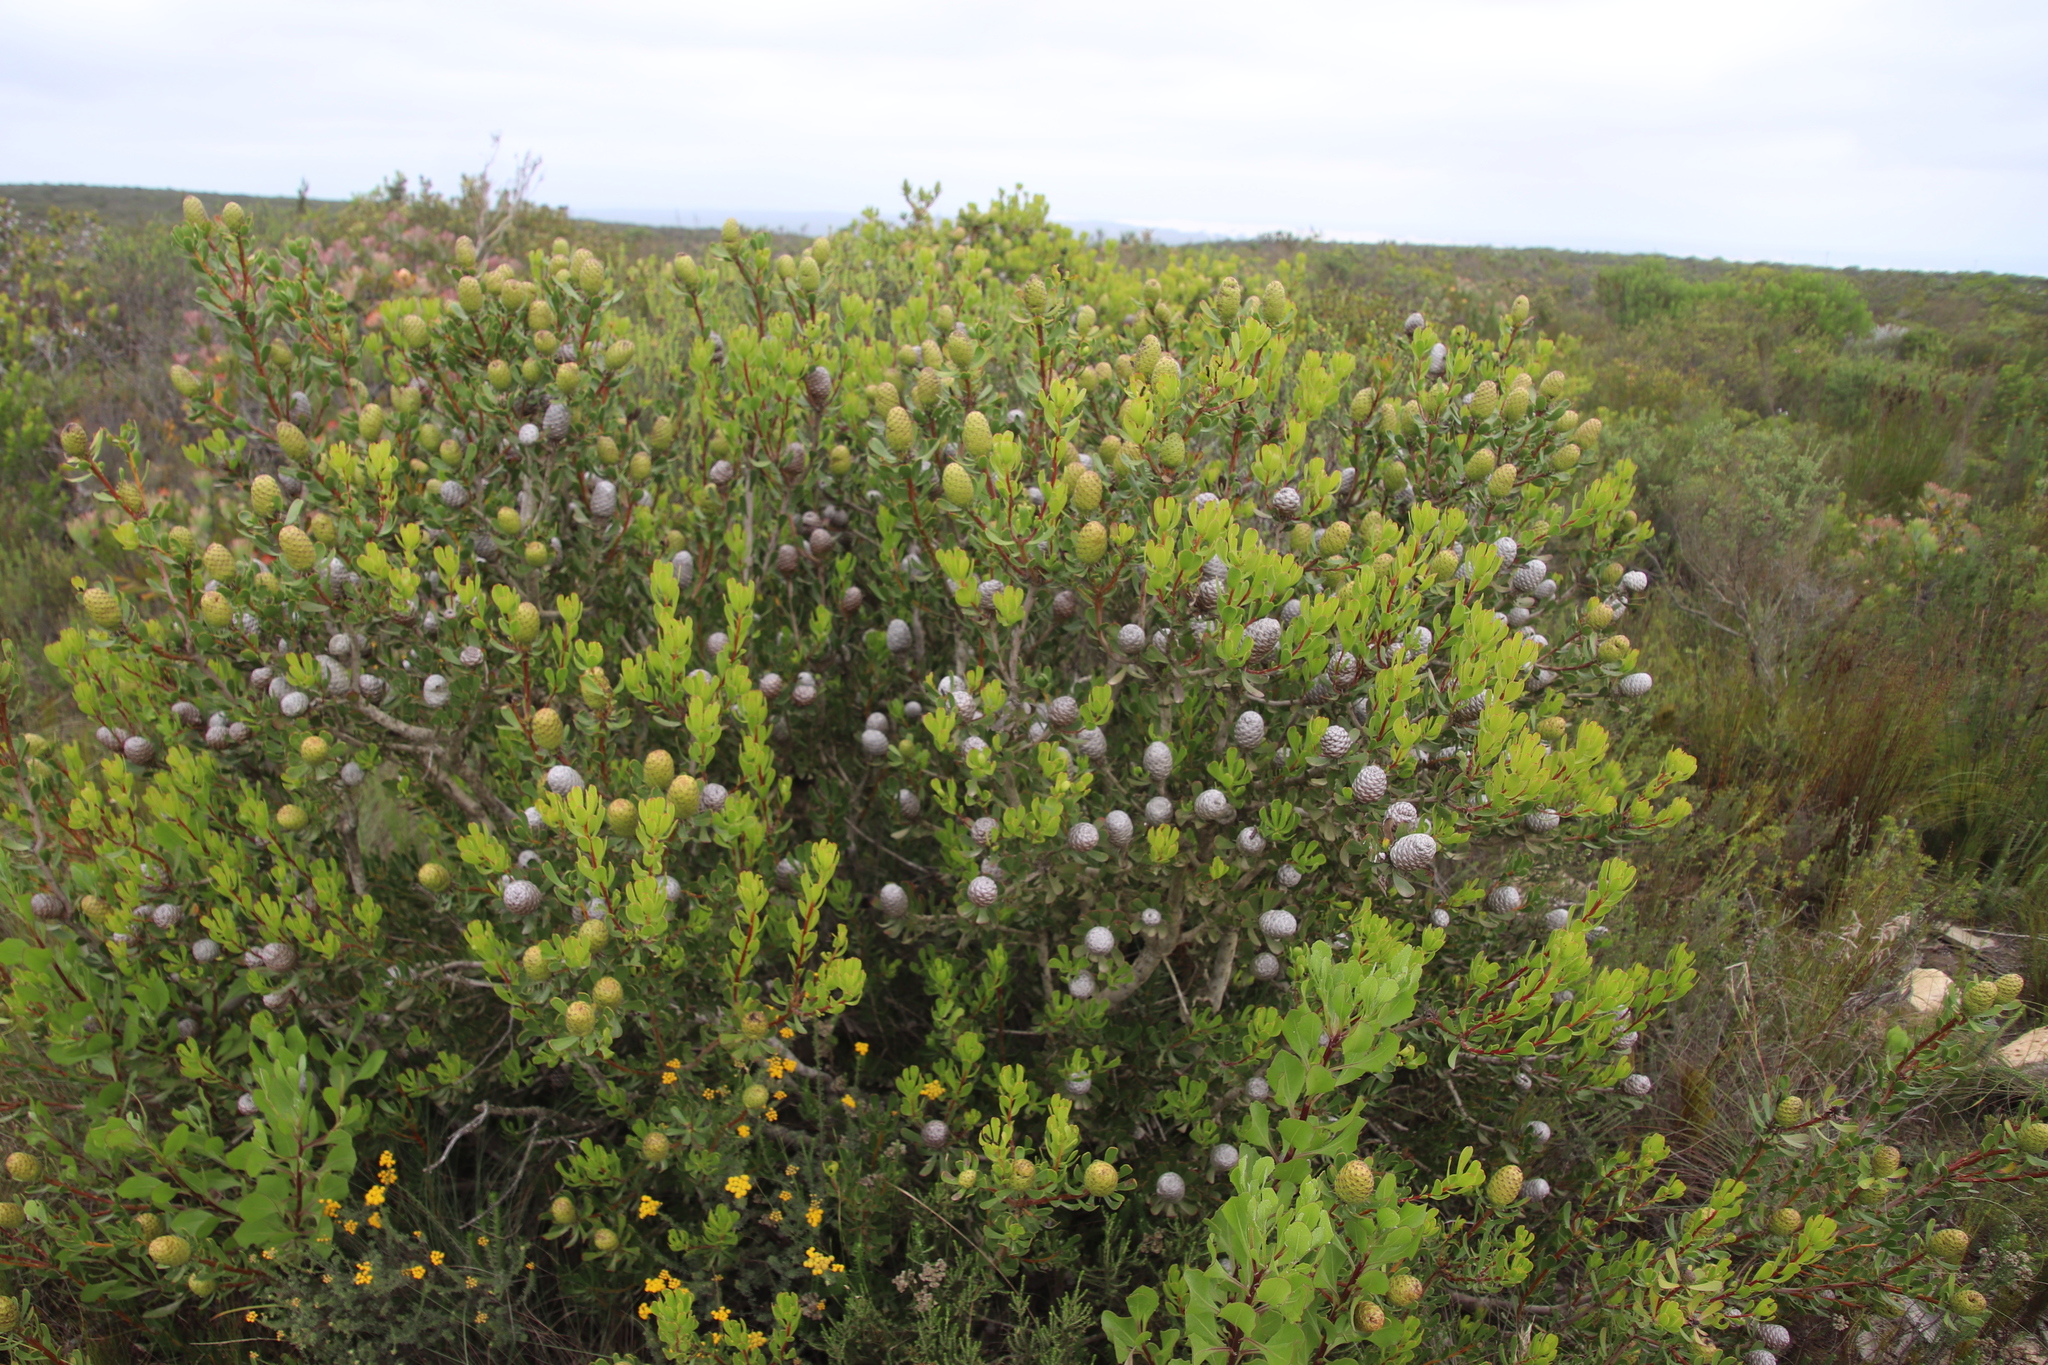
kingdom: Plantae
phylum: Tracheophyta
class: Magnoliopsida
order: Proteales
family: Proteaceae
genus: Leucadendron
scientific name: Leucadendron muirii
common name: Silver-ball conebush
